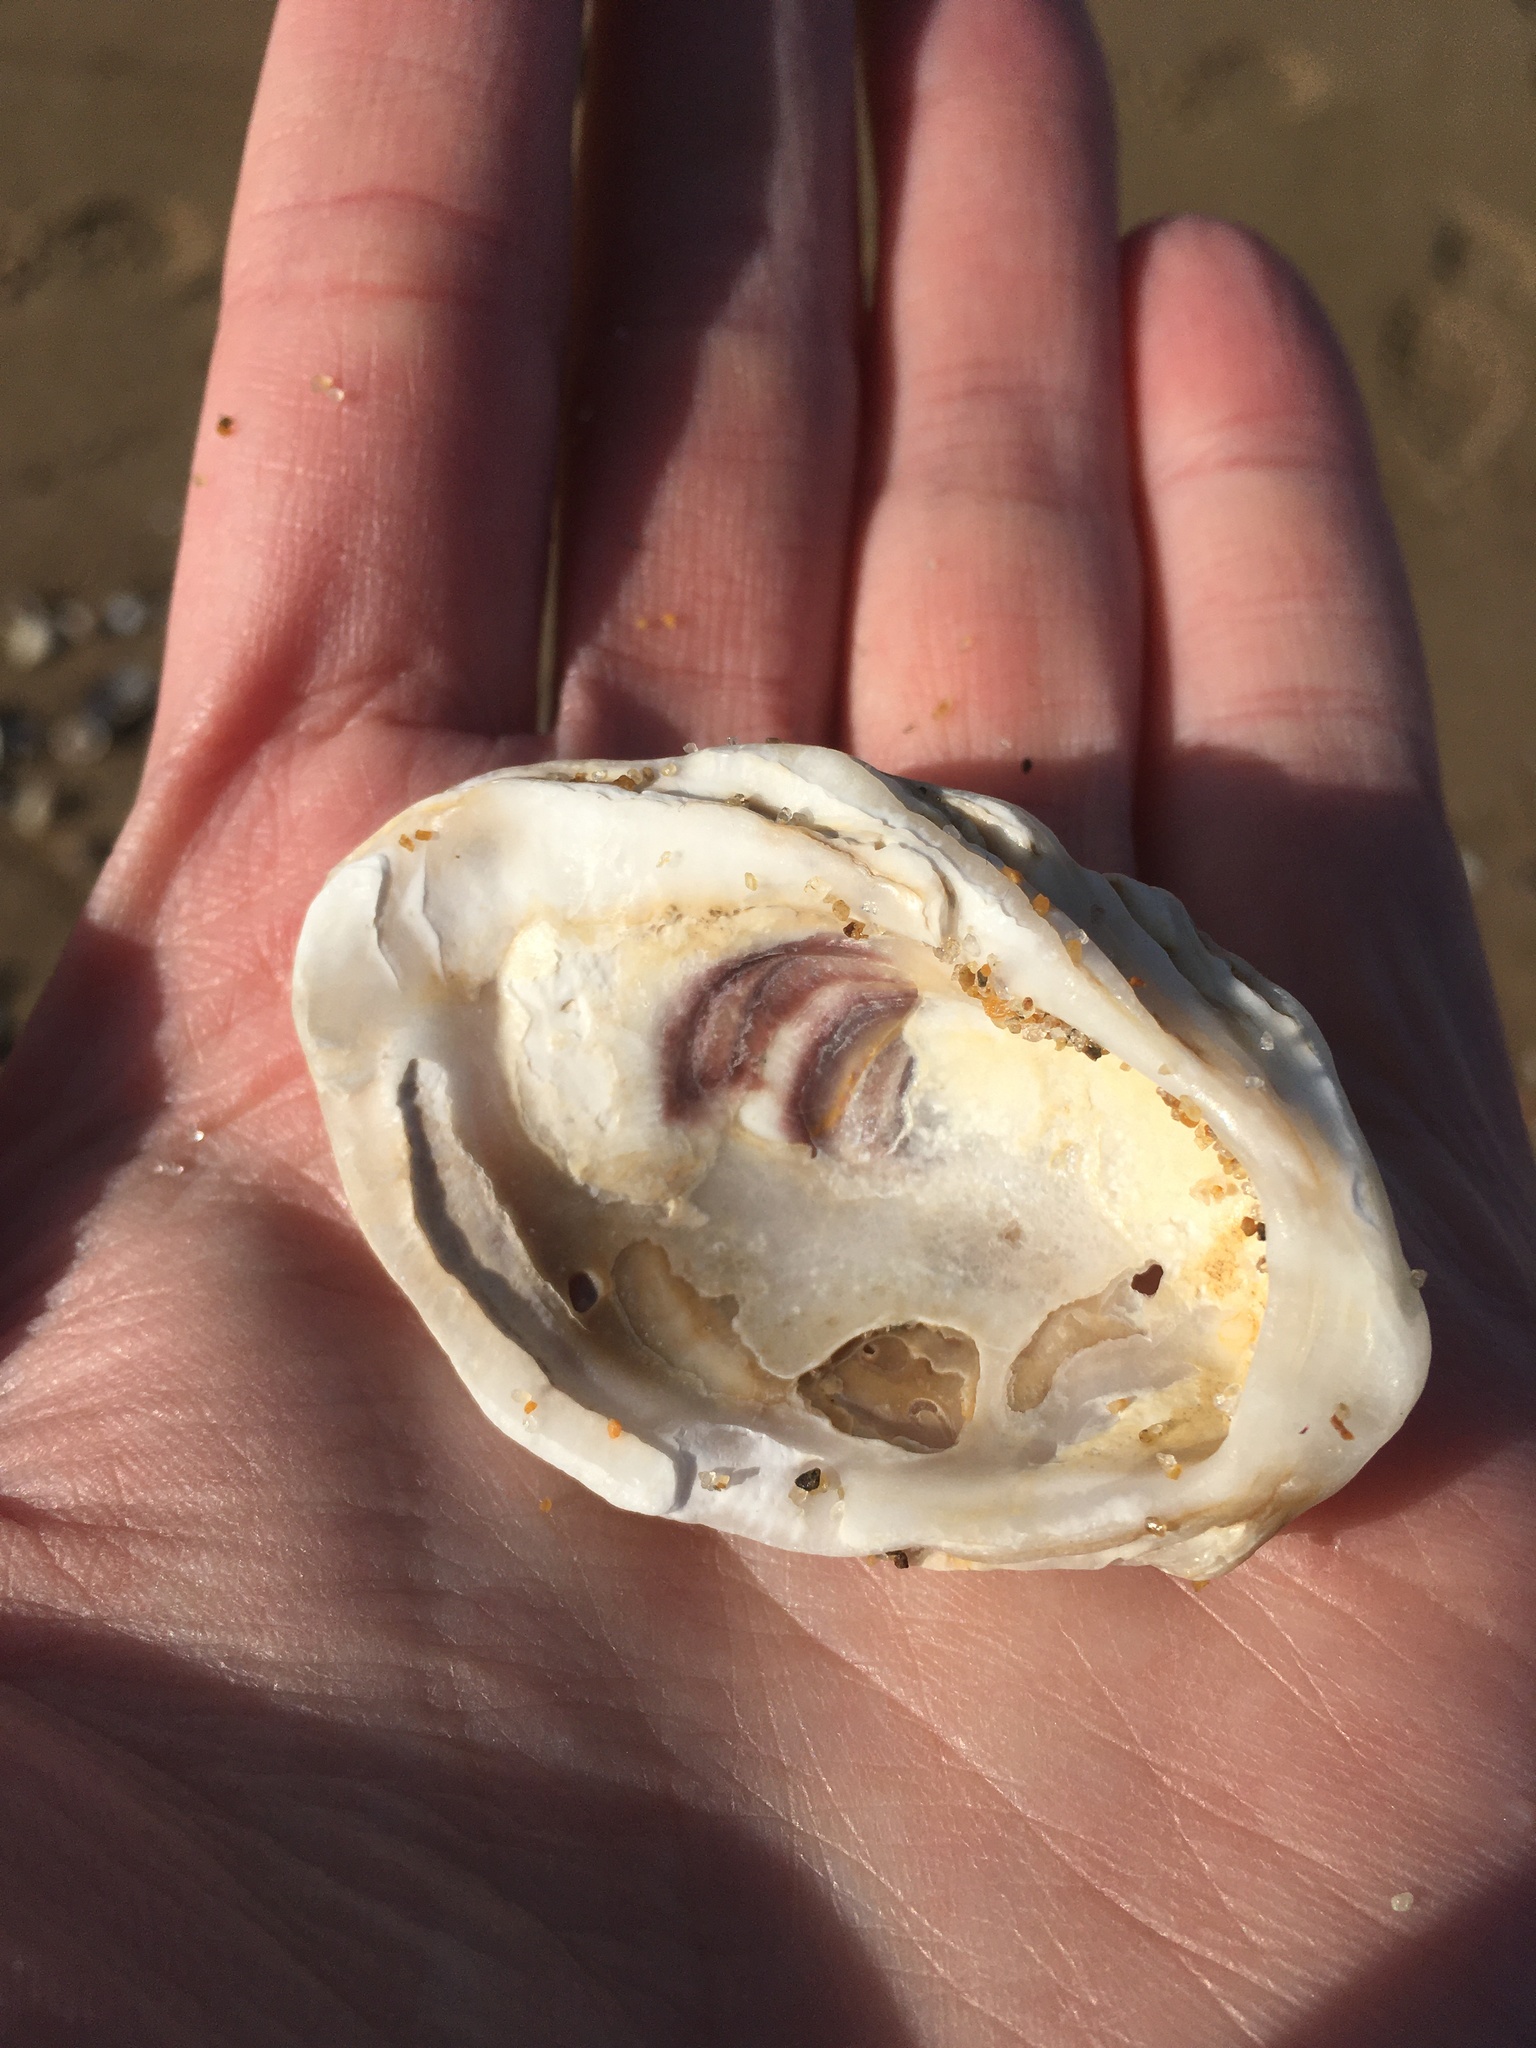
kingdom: Animalia
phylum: Mollusca
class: Bivalvia
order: Ostreida
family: Ostreidae
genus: Crassostrea
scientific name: Crassostrea virginica
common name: American oyster
